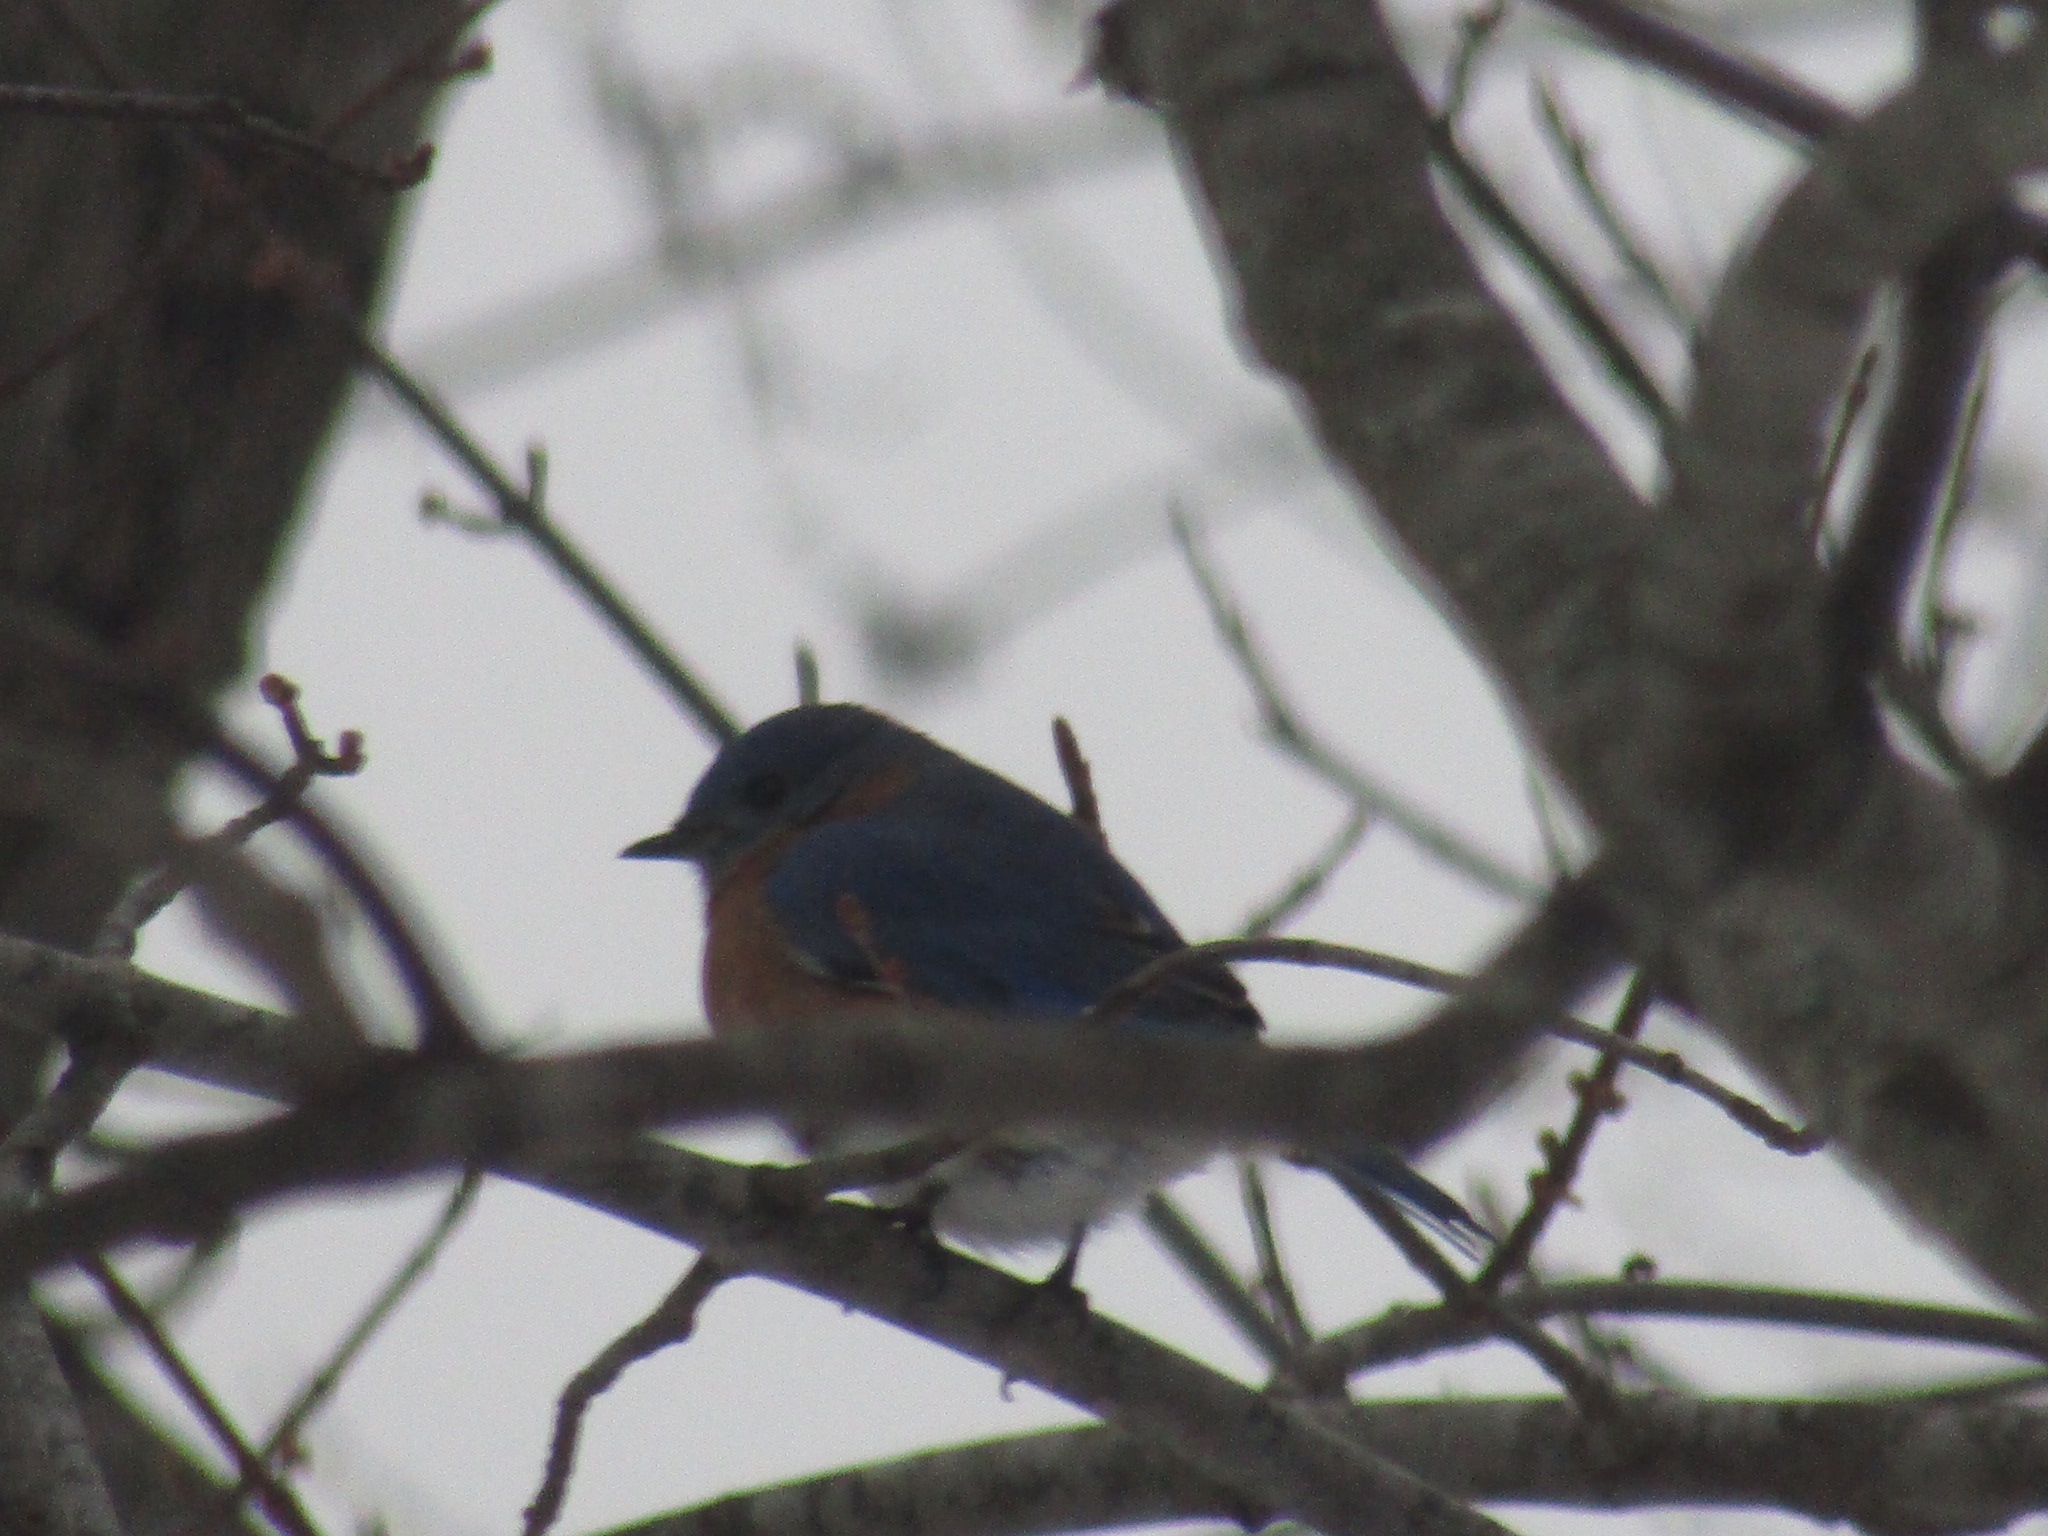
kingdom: Animalia
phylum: Chordata
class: Aves
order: Passeriformes
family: Turdidae
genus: Sialia
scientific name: Sialia sialis
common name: Eastern bluebird
